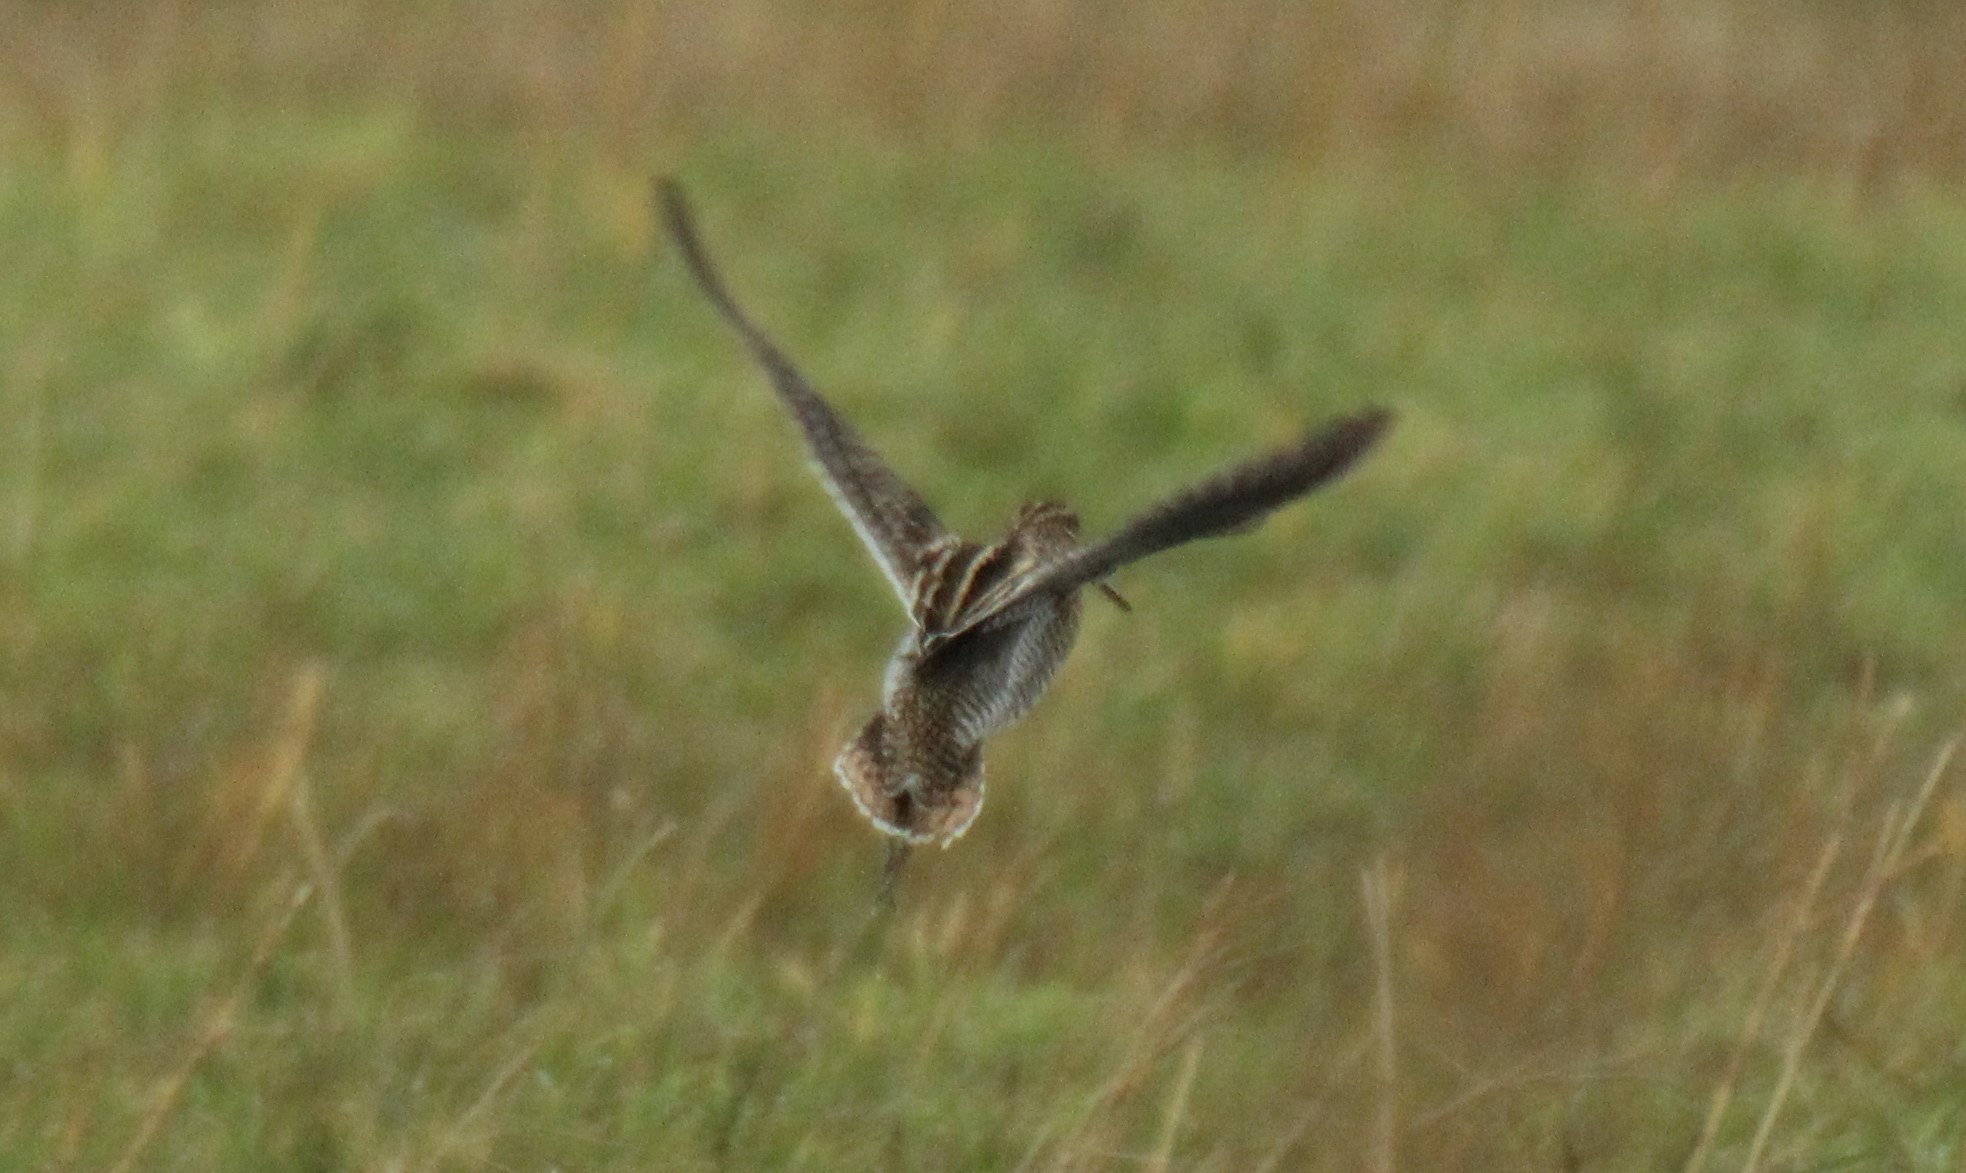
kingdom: Animalia
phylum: Chordata
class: Aves
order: Charadriiformes
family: Scolopacidae
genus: Gallinago
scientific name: Gallinago gallinago
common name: Common snipe
